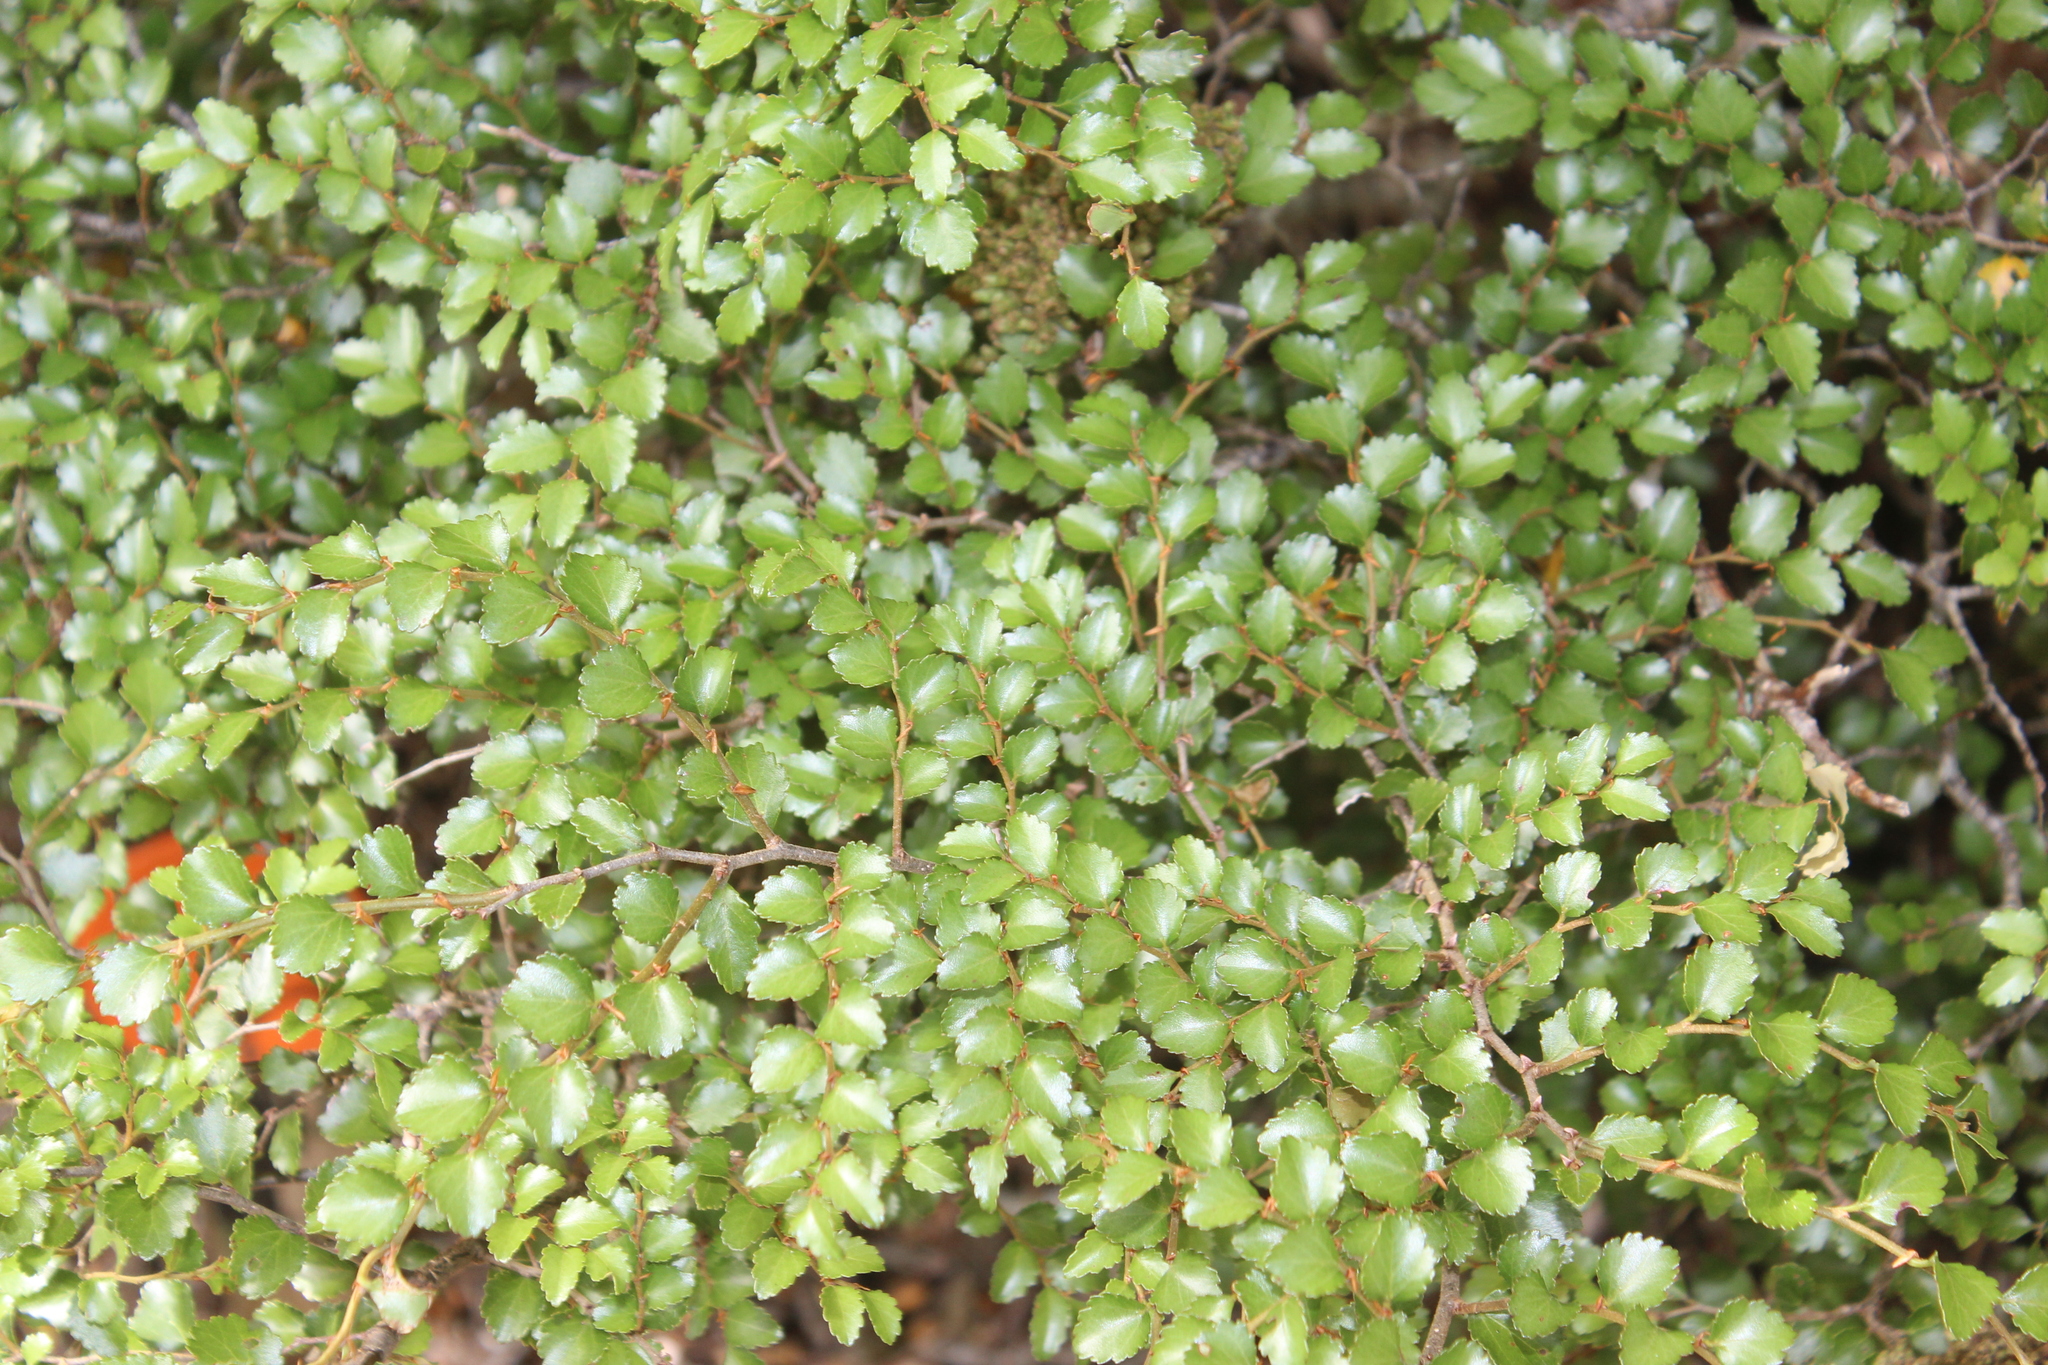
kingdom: Plantae
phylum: Tracheophyta
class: Magnoliopsida
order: Fagales
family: Nothofagaceae
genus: Nothofagus
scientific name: Nothofagus menziesii
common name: Silver beech
